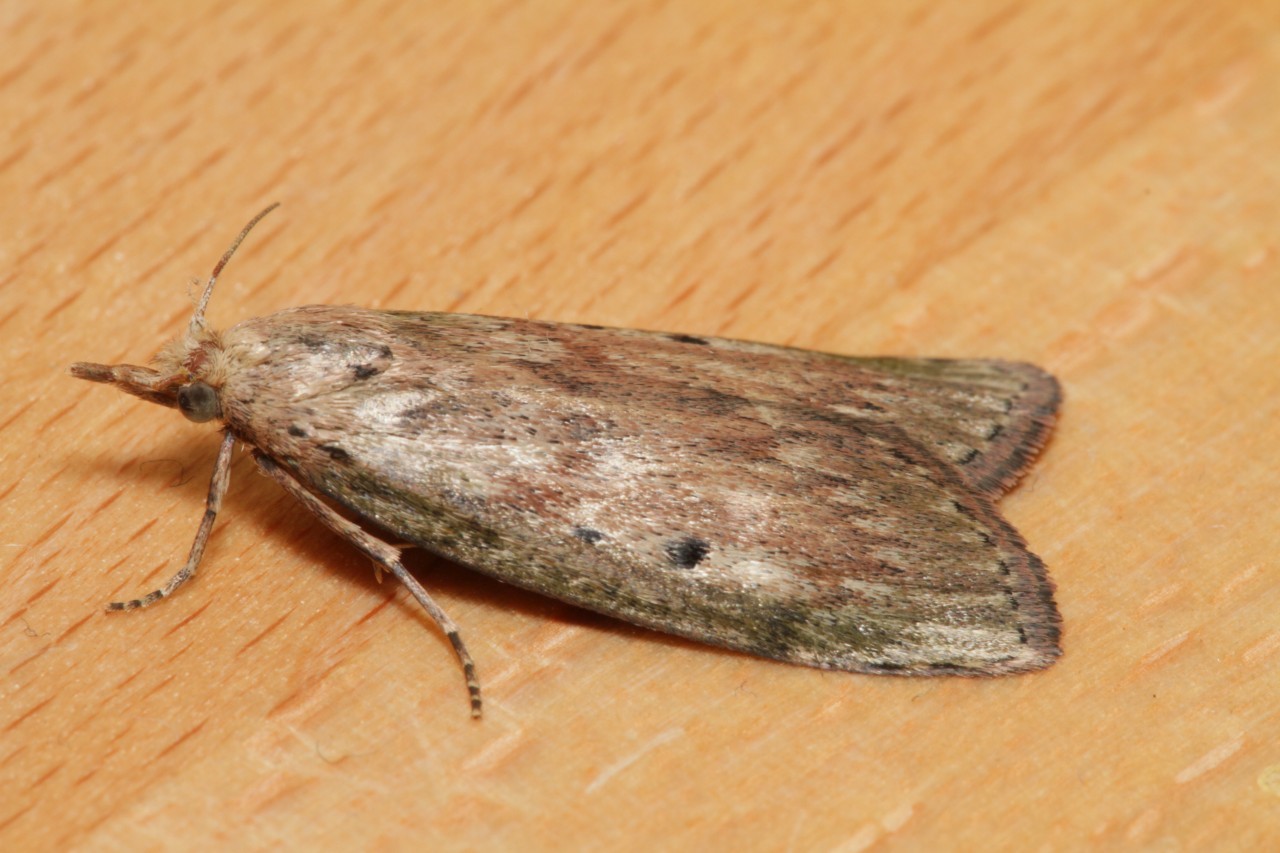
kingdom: Animalia
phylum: Arthropoda
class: Insecta
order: Lepidoptera
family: Pyralidae
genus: Aphomia
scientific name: Aphomia sociella
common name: Bee moth
